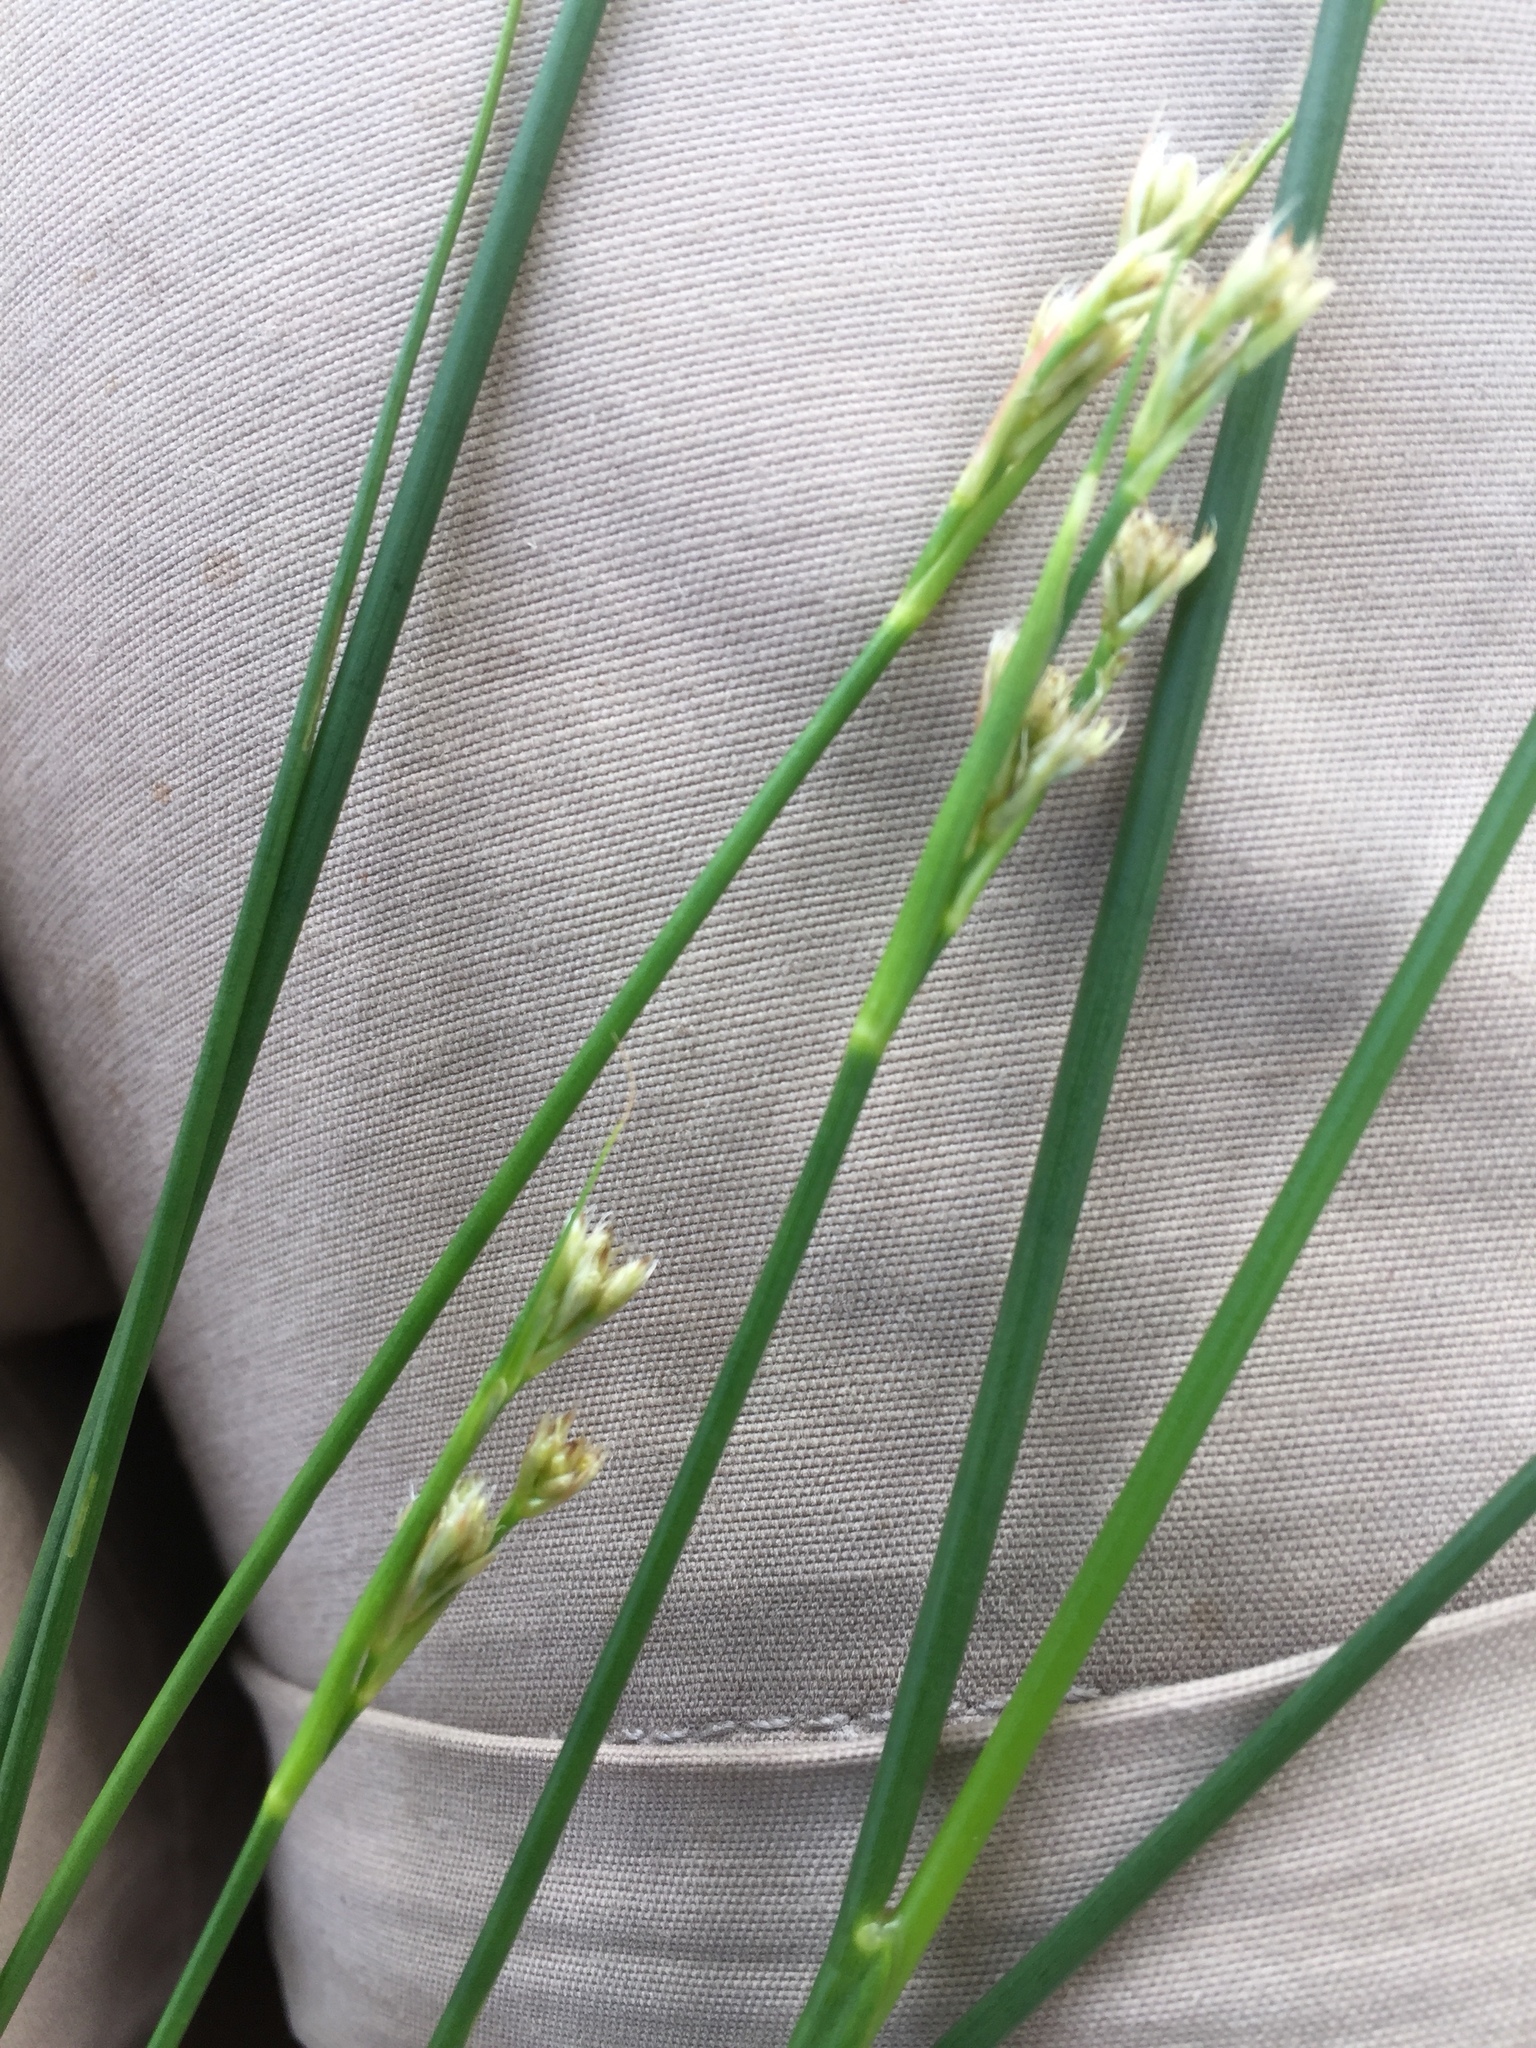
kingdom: Plantae
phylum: Tracheophyta
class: Liliopsida
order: Poales
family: Juncaceae
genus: Juncus
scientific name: Juncus subnodulosus
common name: Blunt-flowered rush
